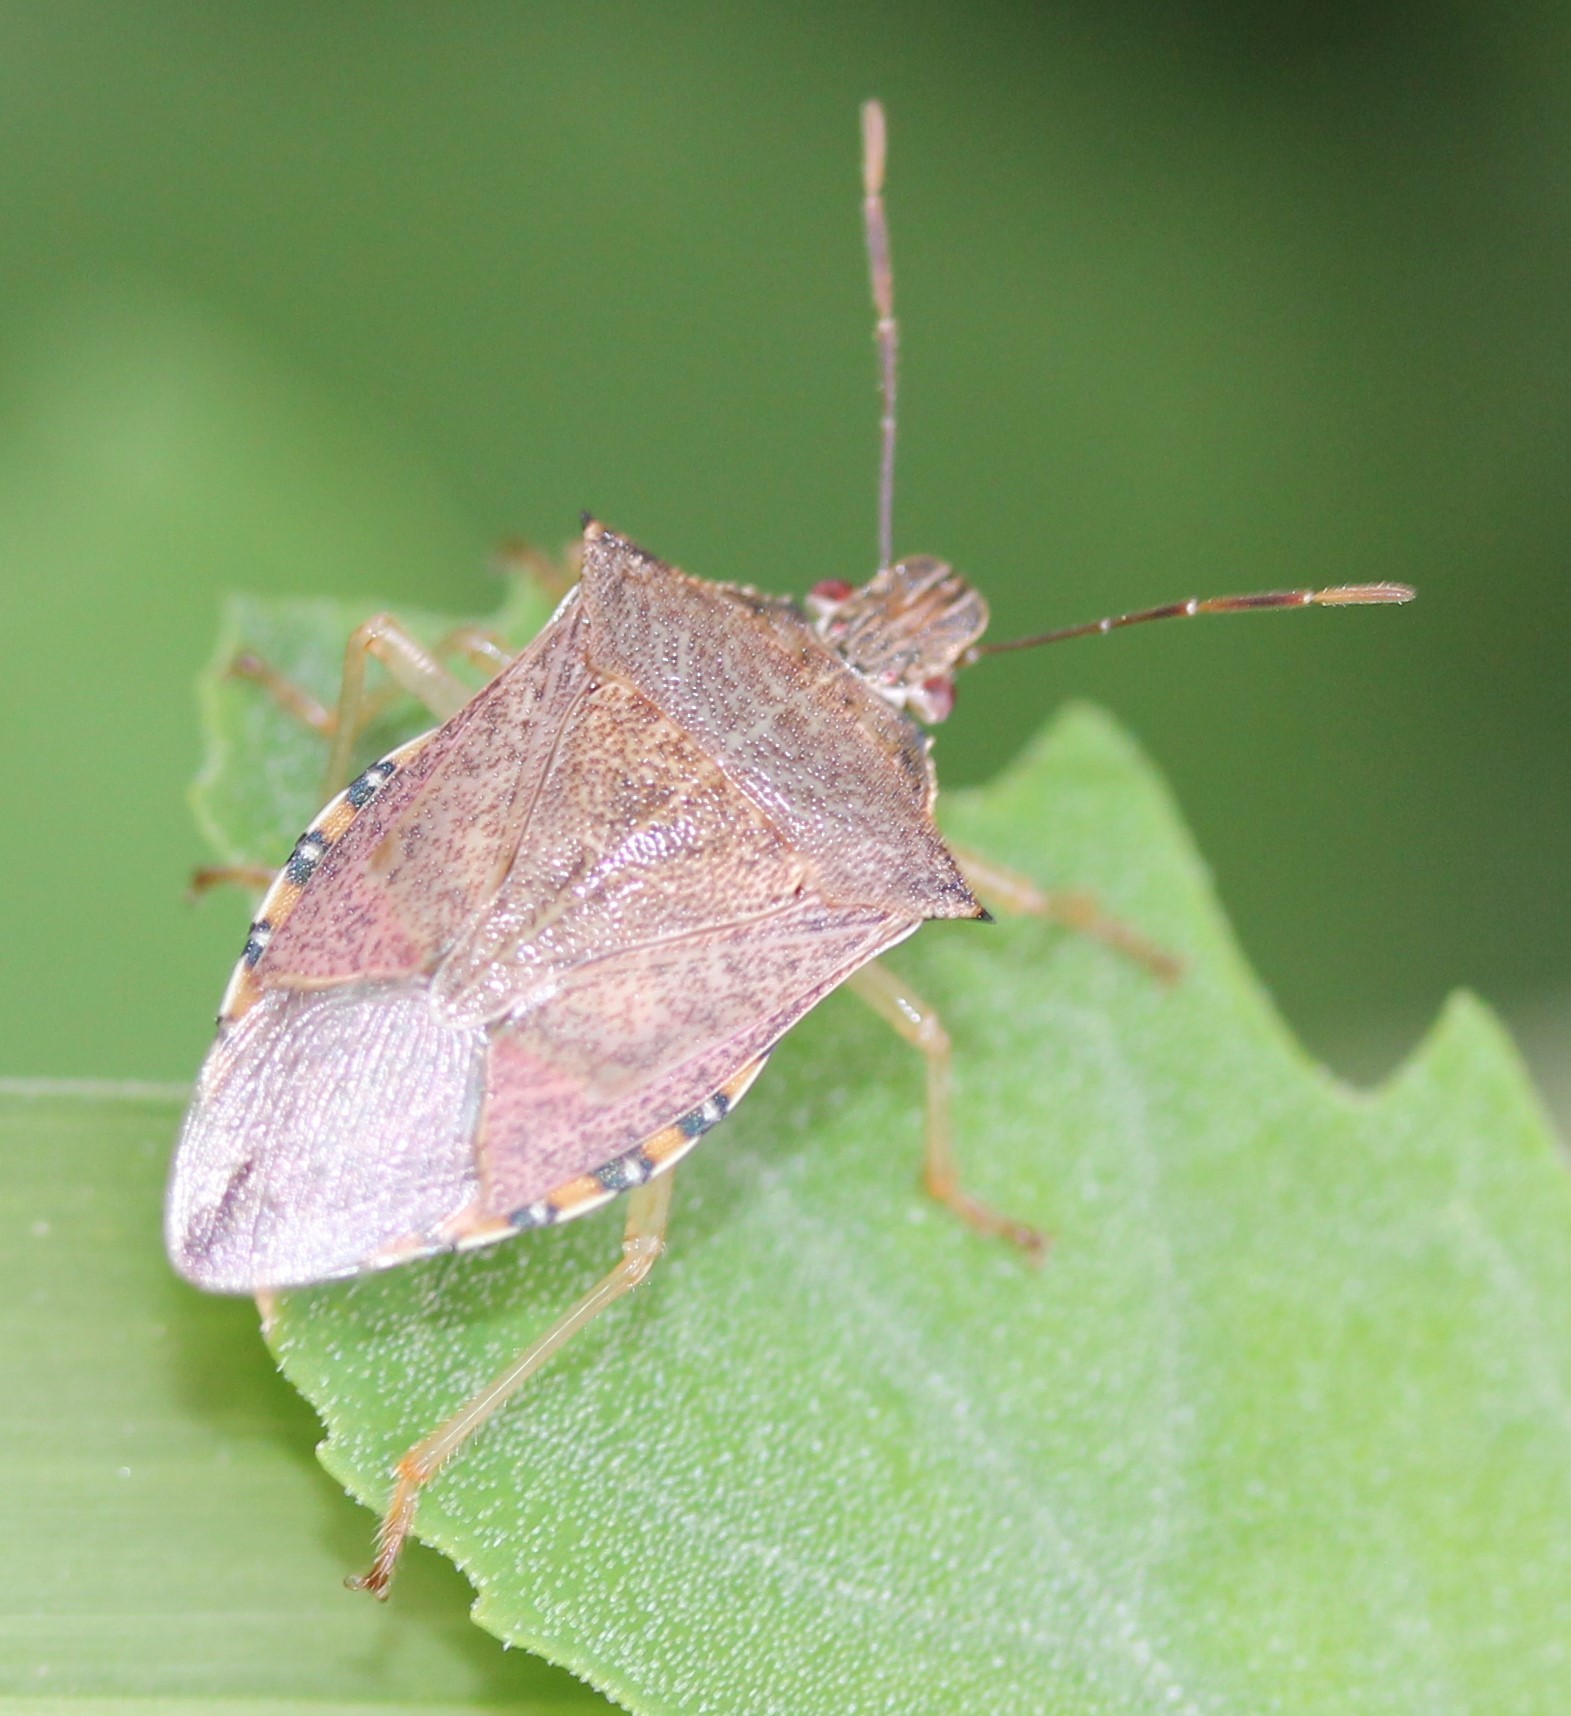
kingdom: Animalia
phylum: Arthropoda
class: Insecta
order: Hemiptera
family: Pentatomidae
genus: Podisus
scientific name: Podisus maculiventris
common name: Spined soldier bug
